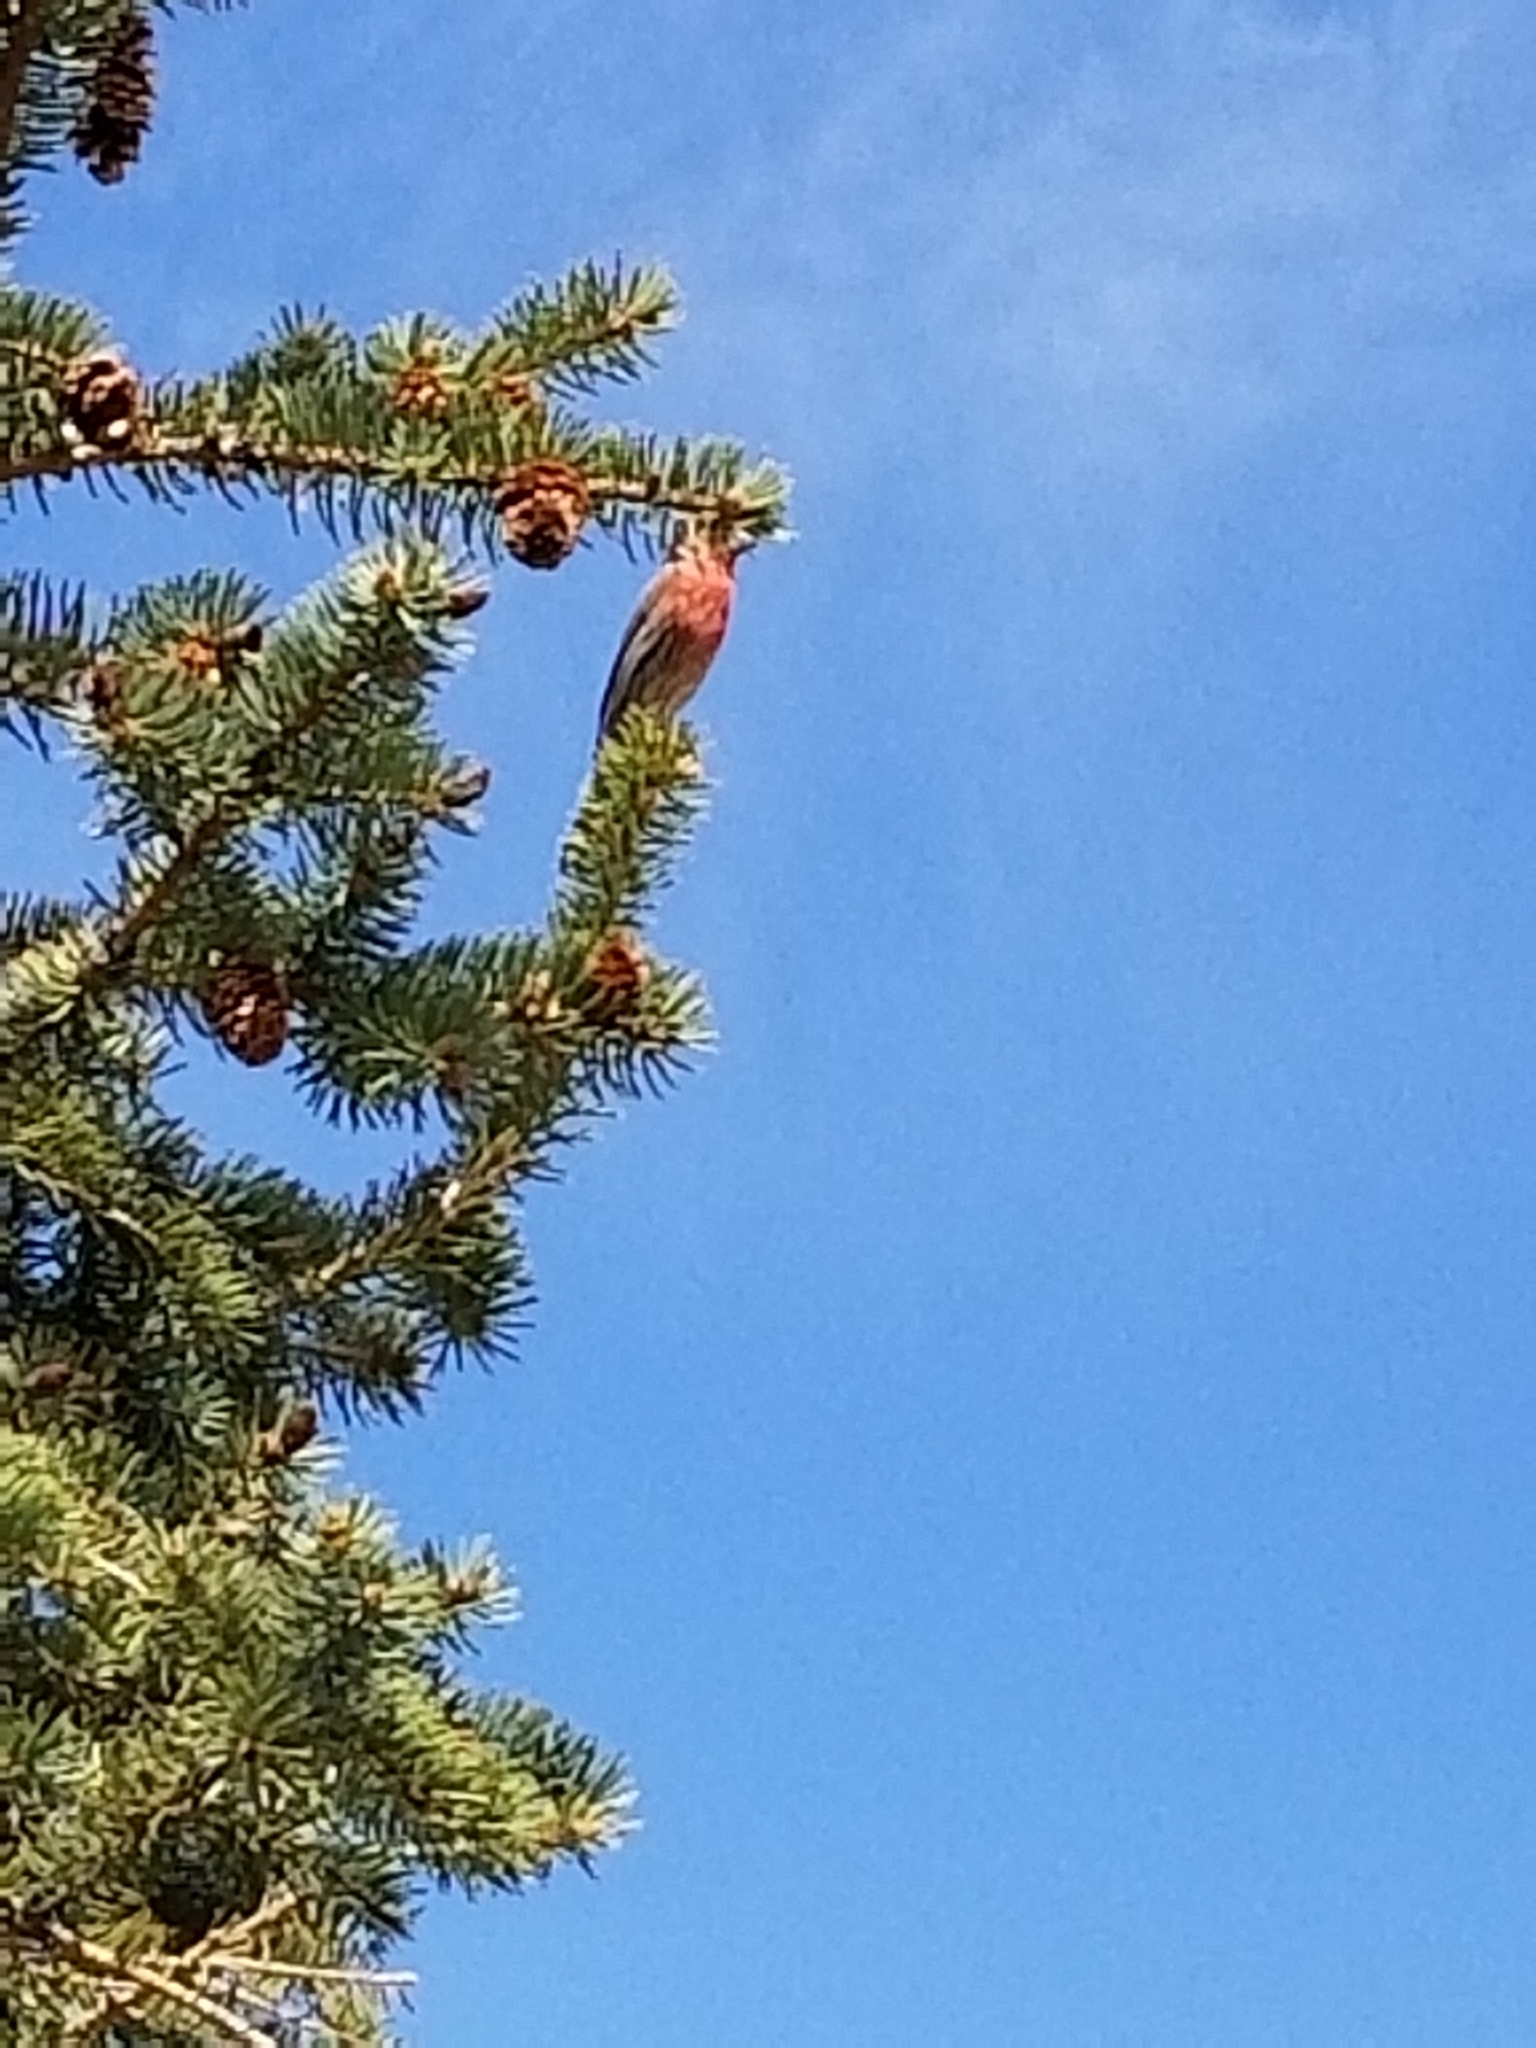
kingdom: Animalia
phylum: Chordata
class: Aves
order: Passeriformes
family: Fringillidae
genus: Haemorhous
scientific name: Haemorhous mexicanus
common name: House finch
